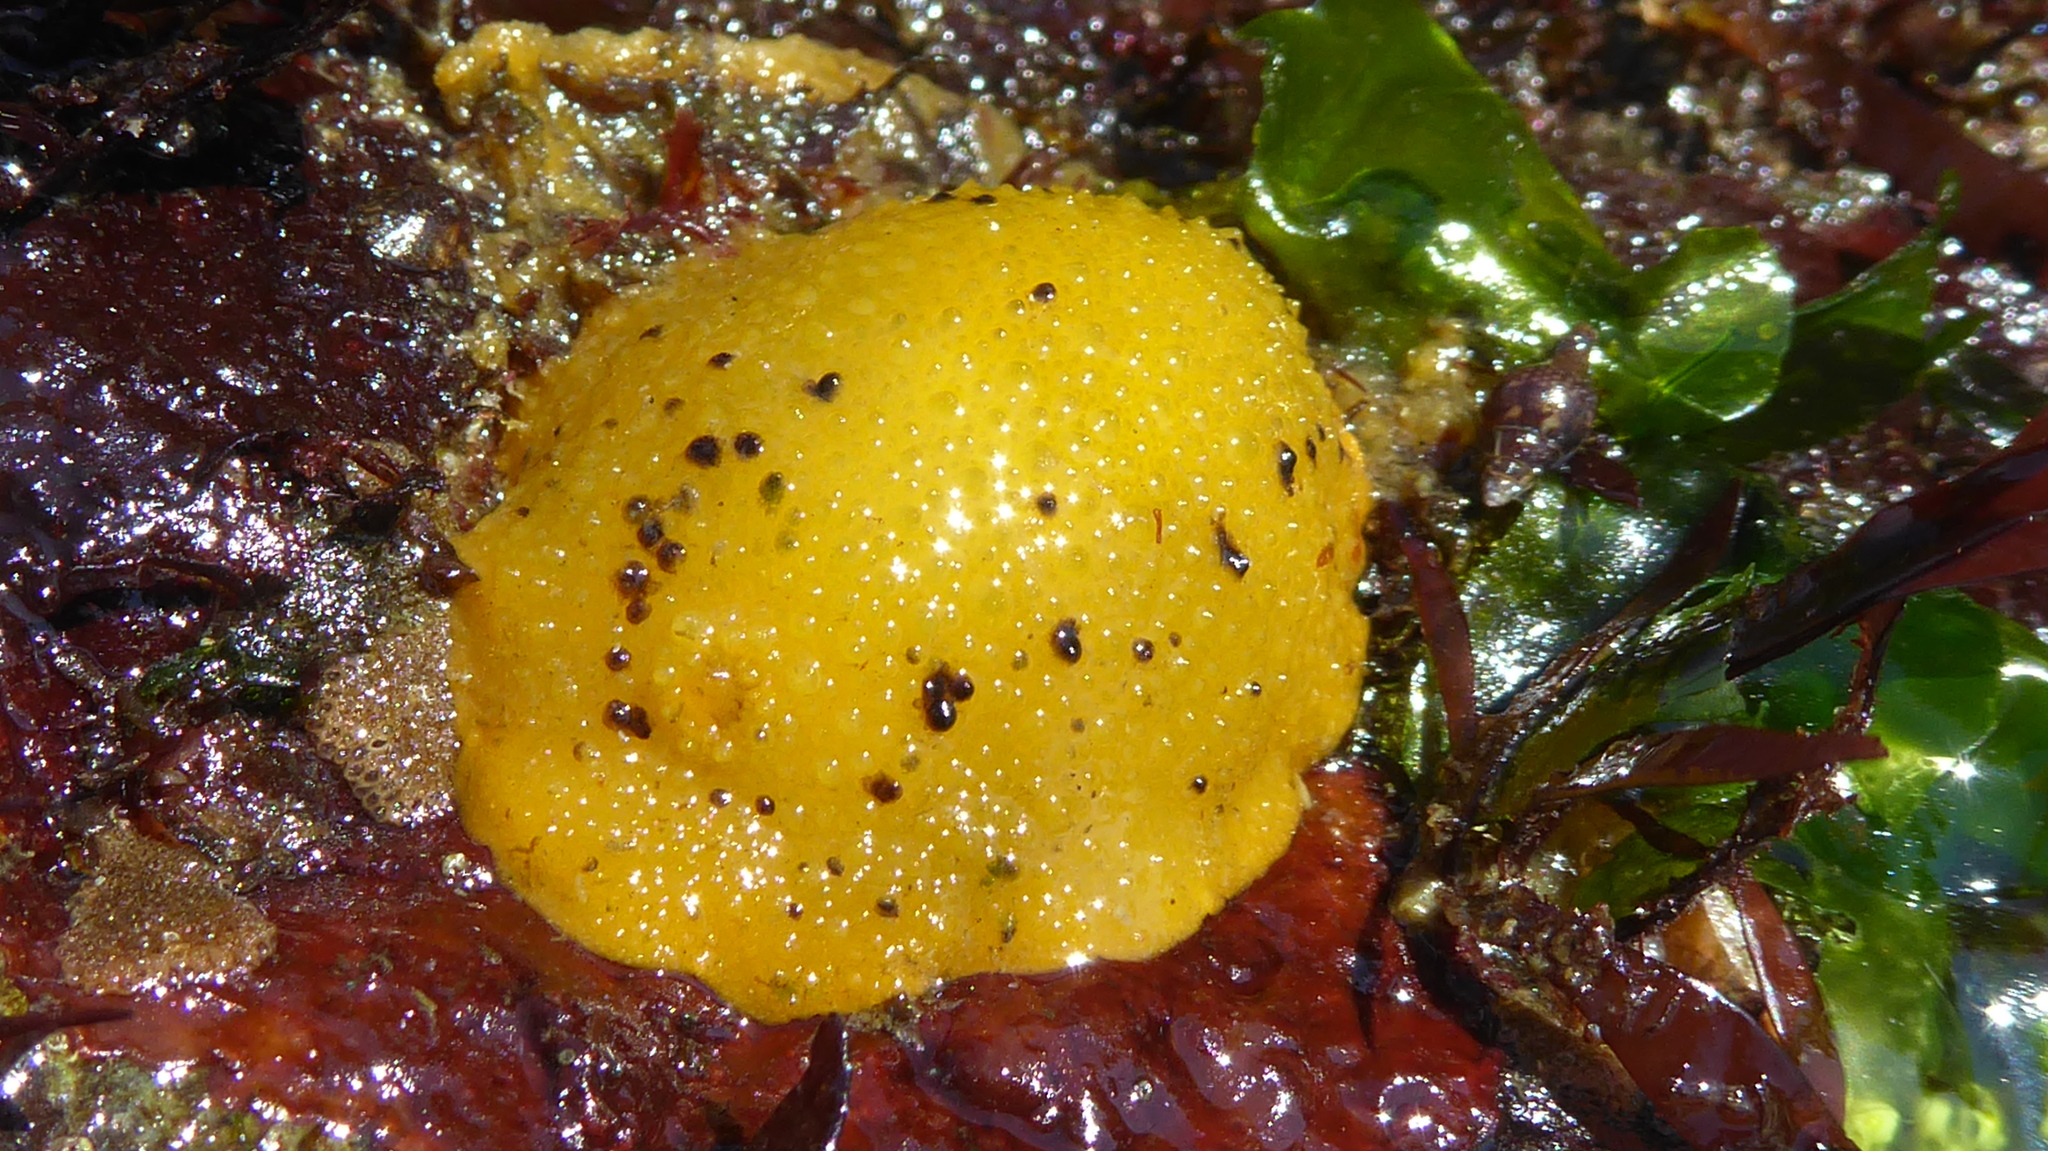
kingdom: Animalia
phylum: Mollusca
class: Gastropoda
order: Nudibranchia
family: Dorididae
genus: Doris
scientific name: Doris montereyensis
